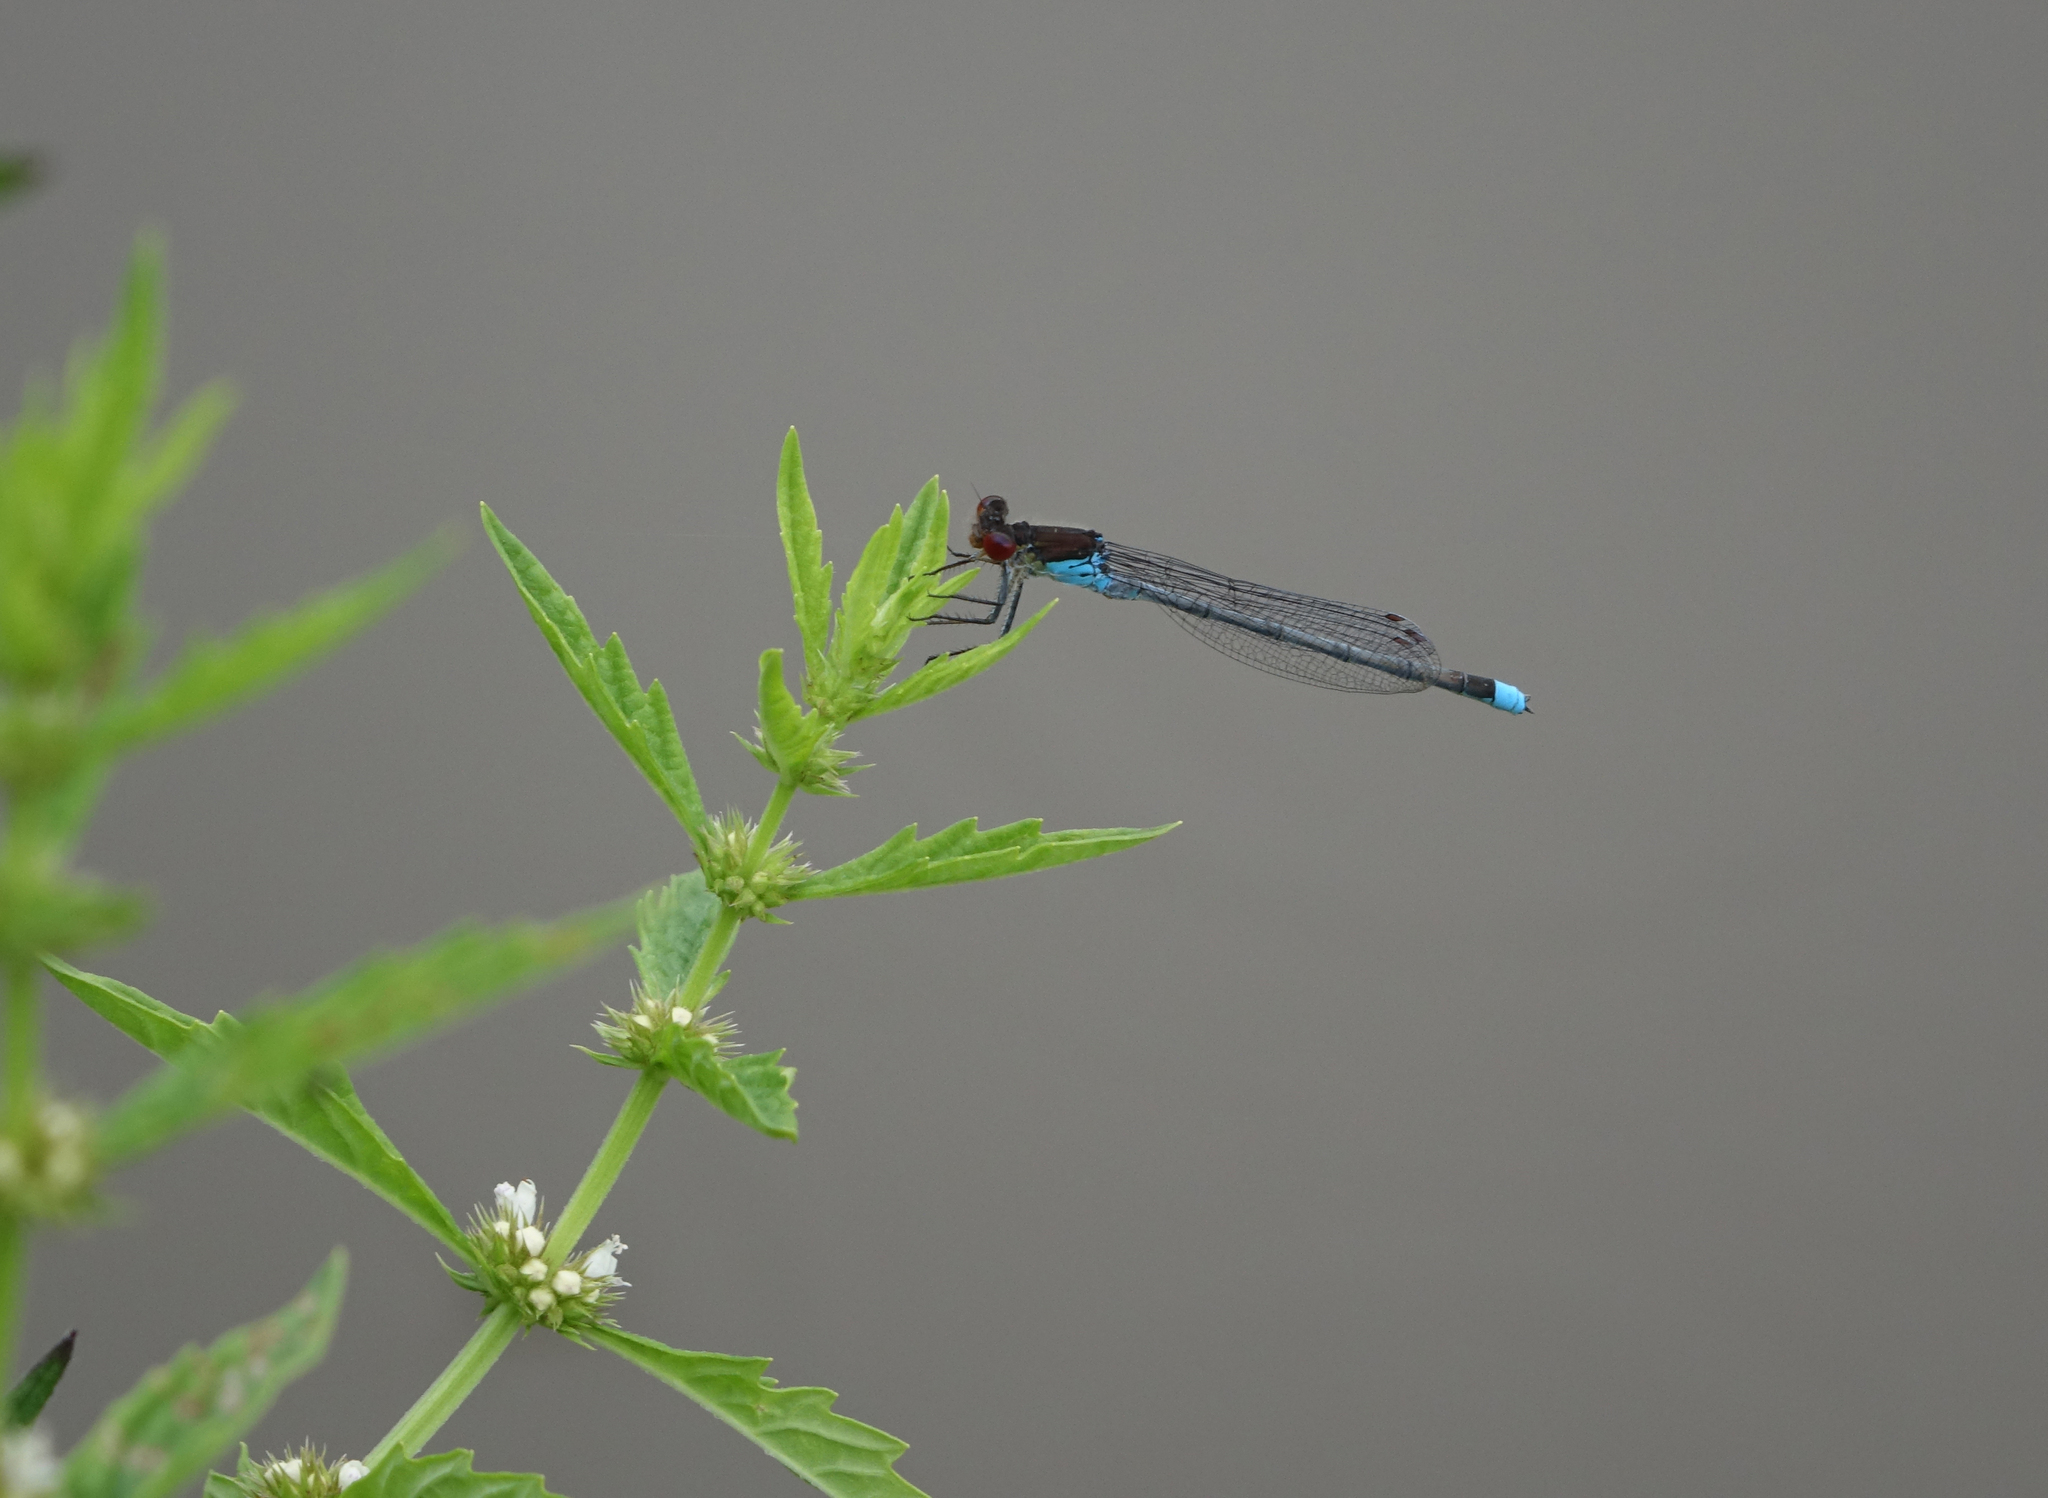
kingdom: Animalia
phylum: Arthropoda
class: Insecta
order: Odonata
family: Coenagrionidae
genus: Erythromma
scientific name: Erythromma najas
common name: Red-eyed damselfly
